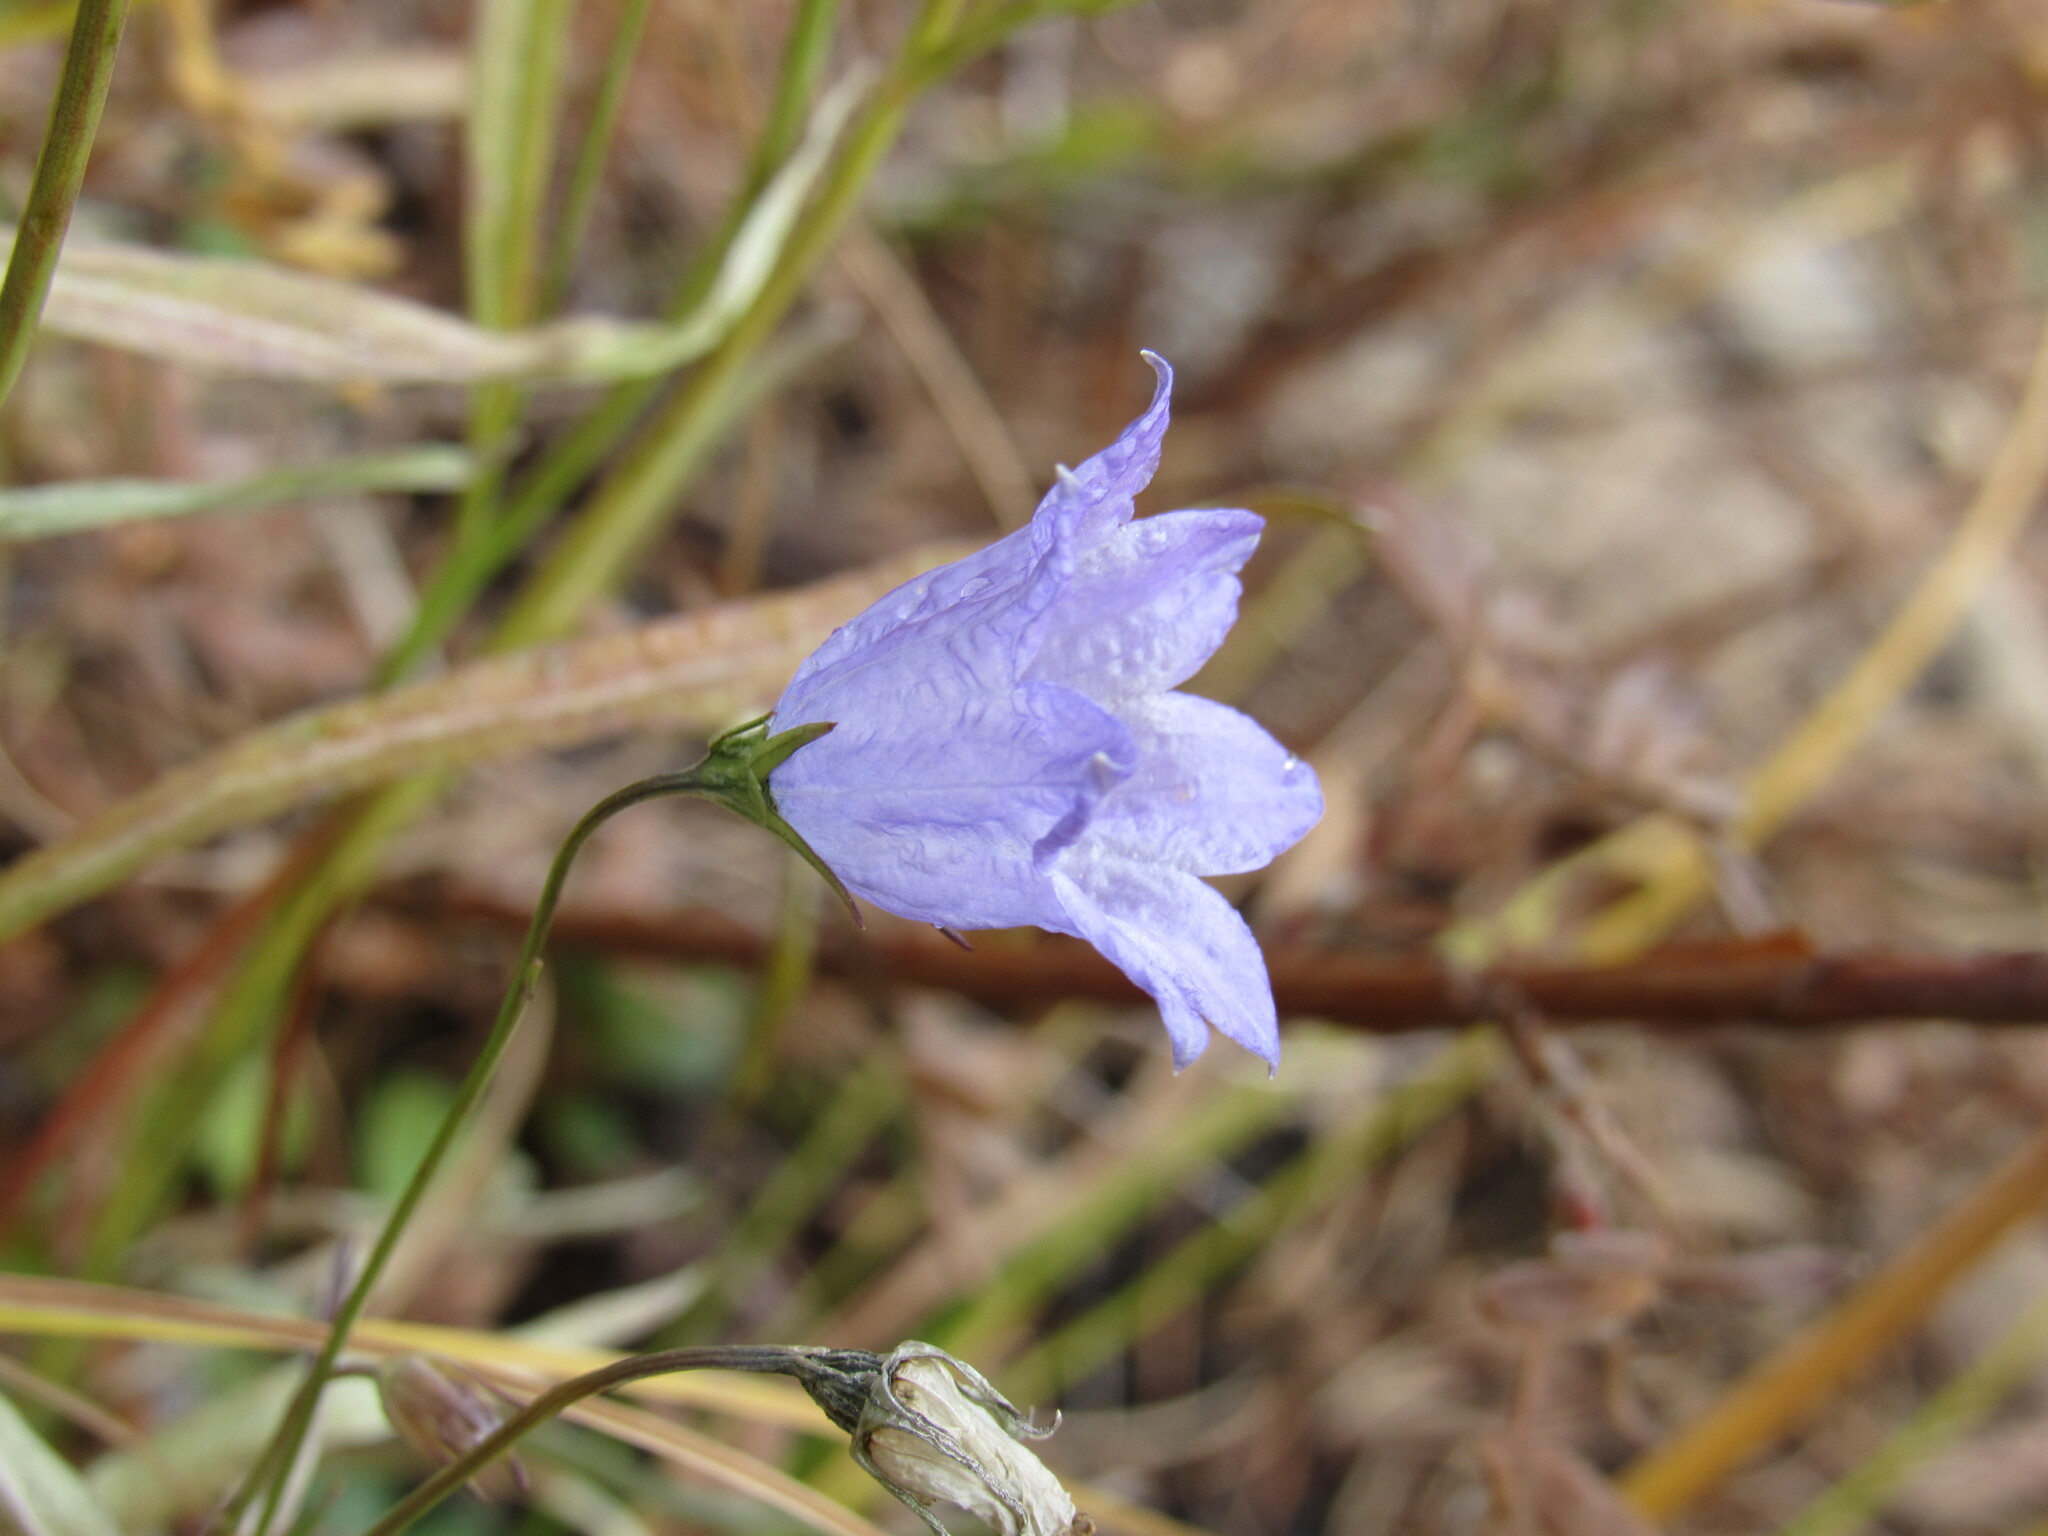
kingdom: Plantae
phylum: Tracheophyta
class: Magnoliopsida
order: Asterales
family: Campanulaceae
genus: Campanula
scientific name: Campanula petiolata
